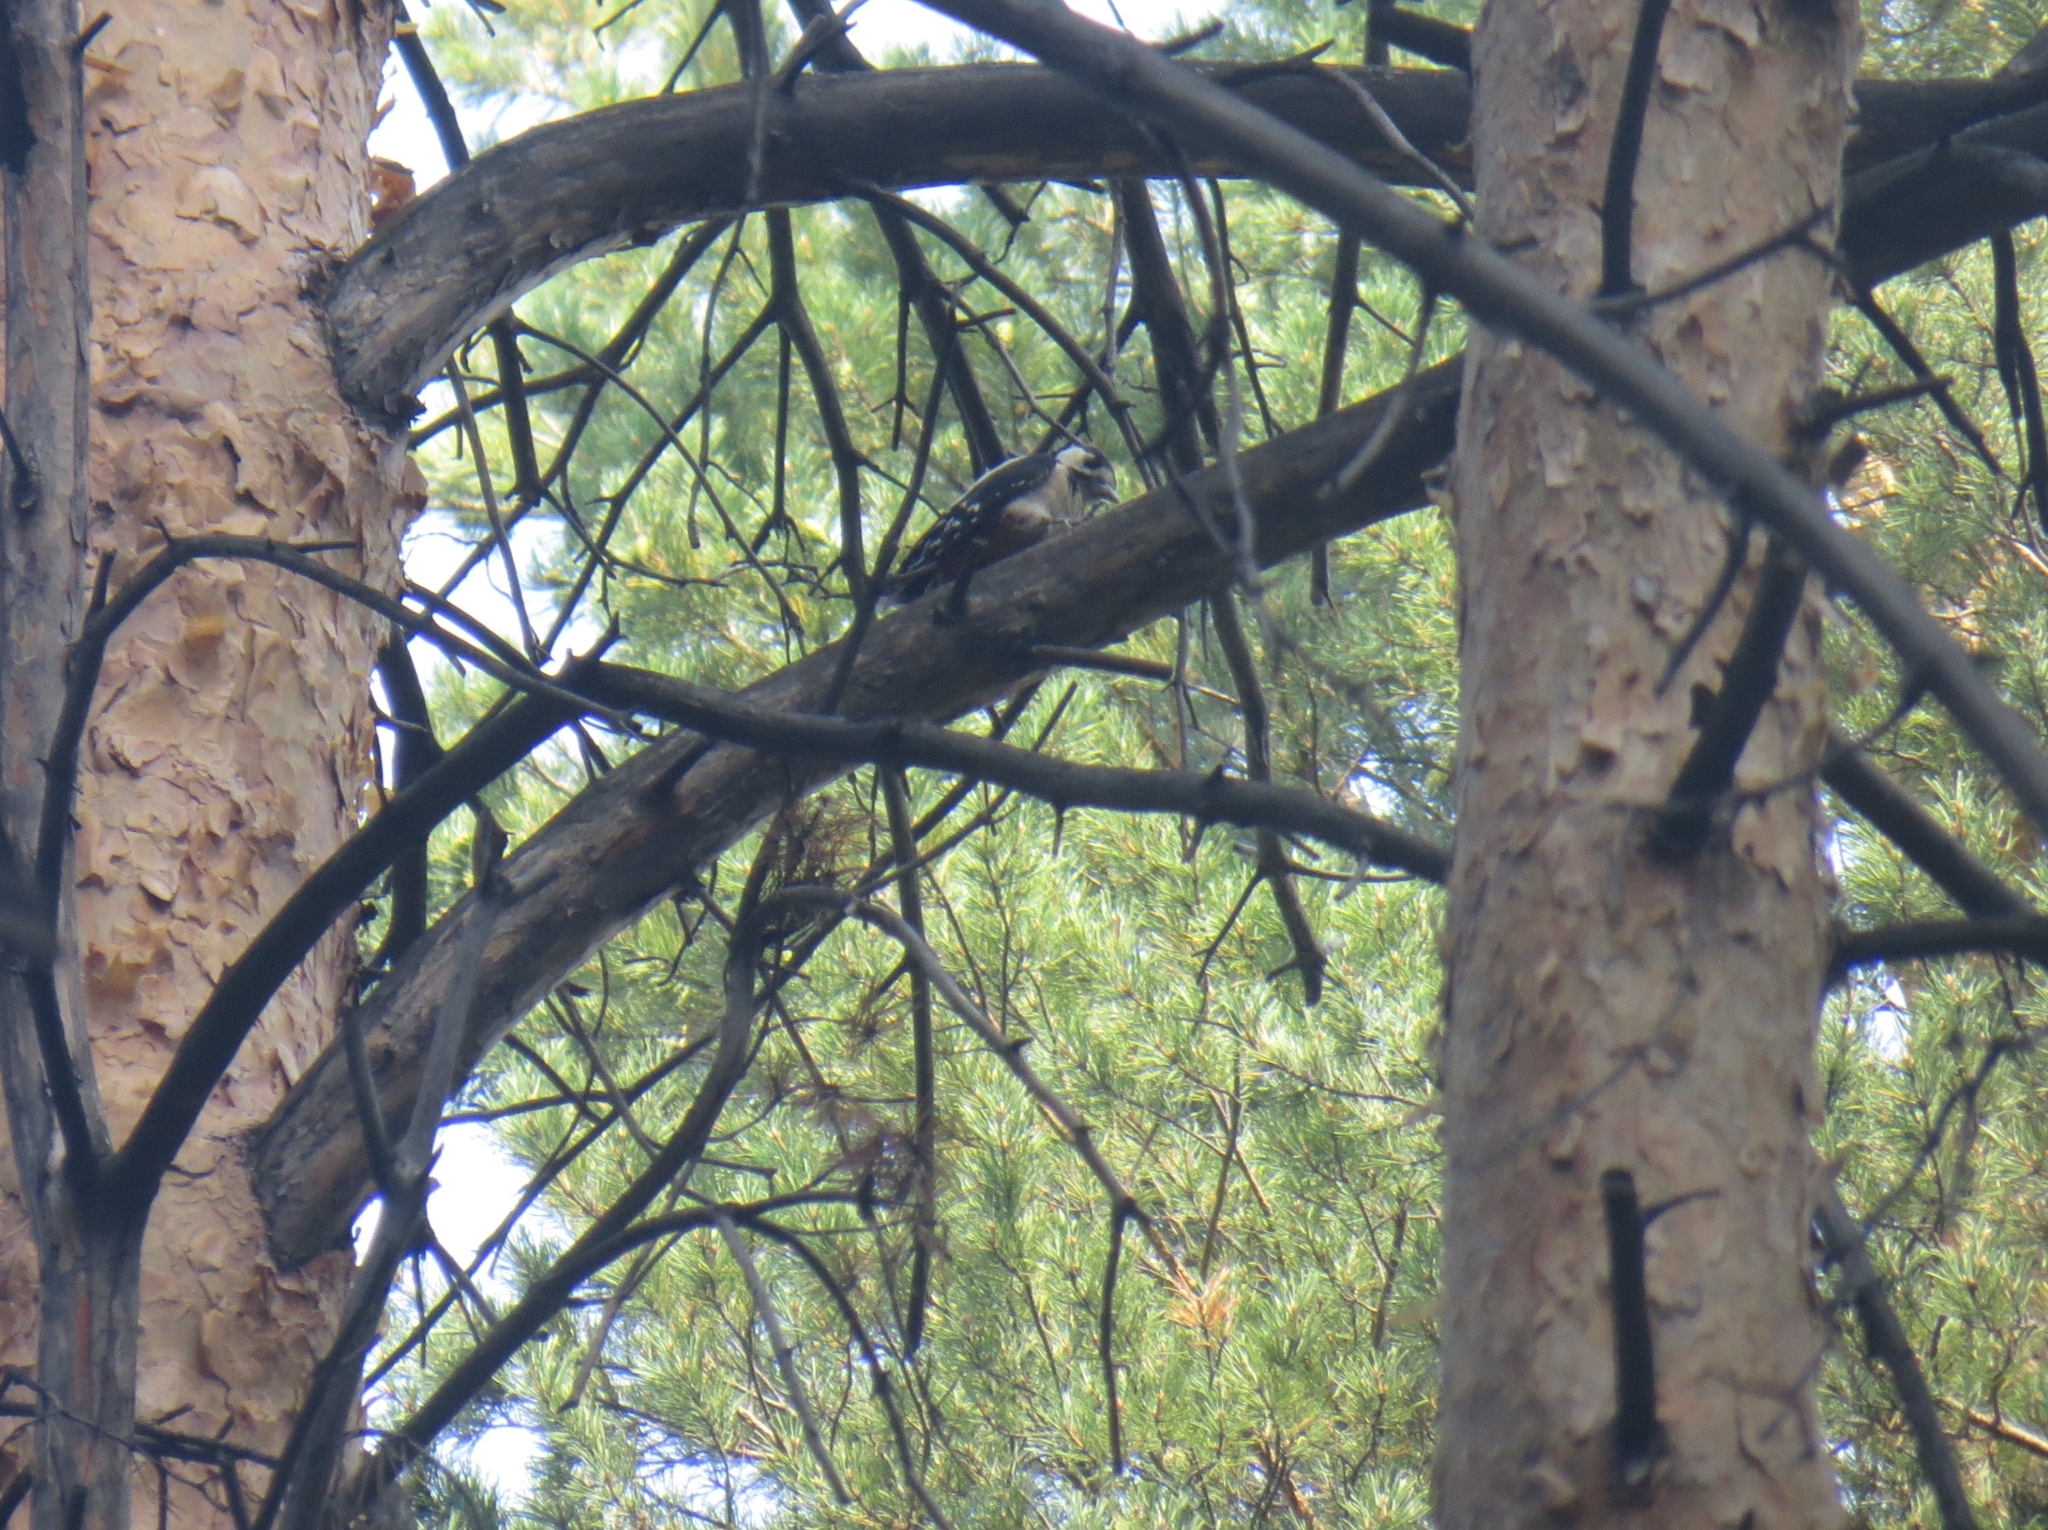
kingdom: Animalia
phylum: Chordata
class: Aves
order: Piciformes
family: Picidae
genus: Dendrocopos
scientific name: Dendrocopos major
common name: Great spotted woodpecker
